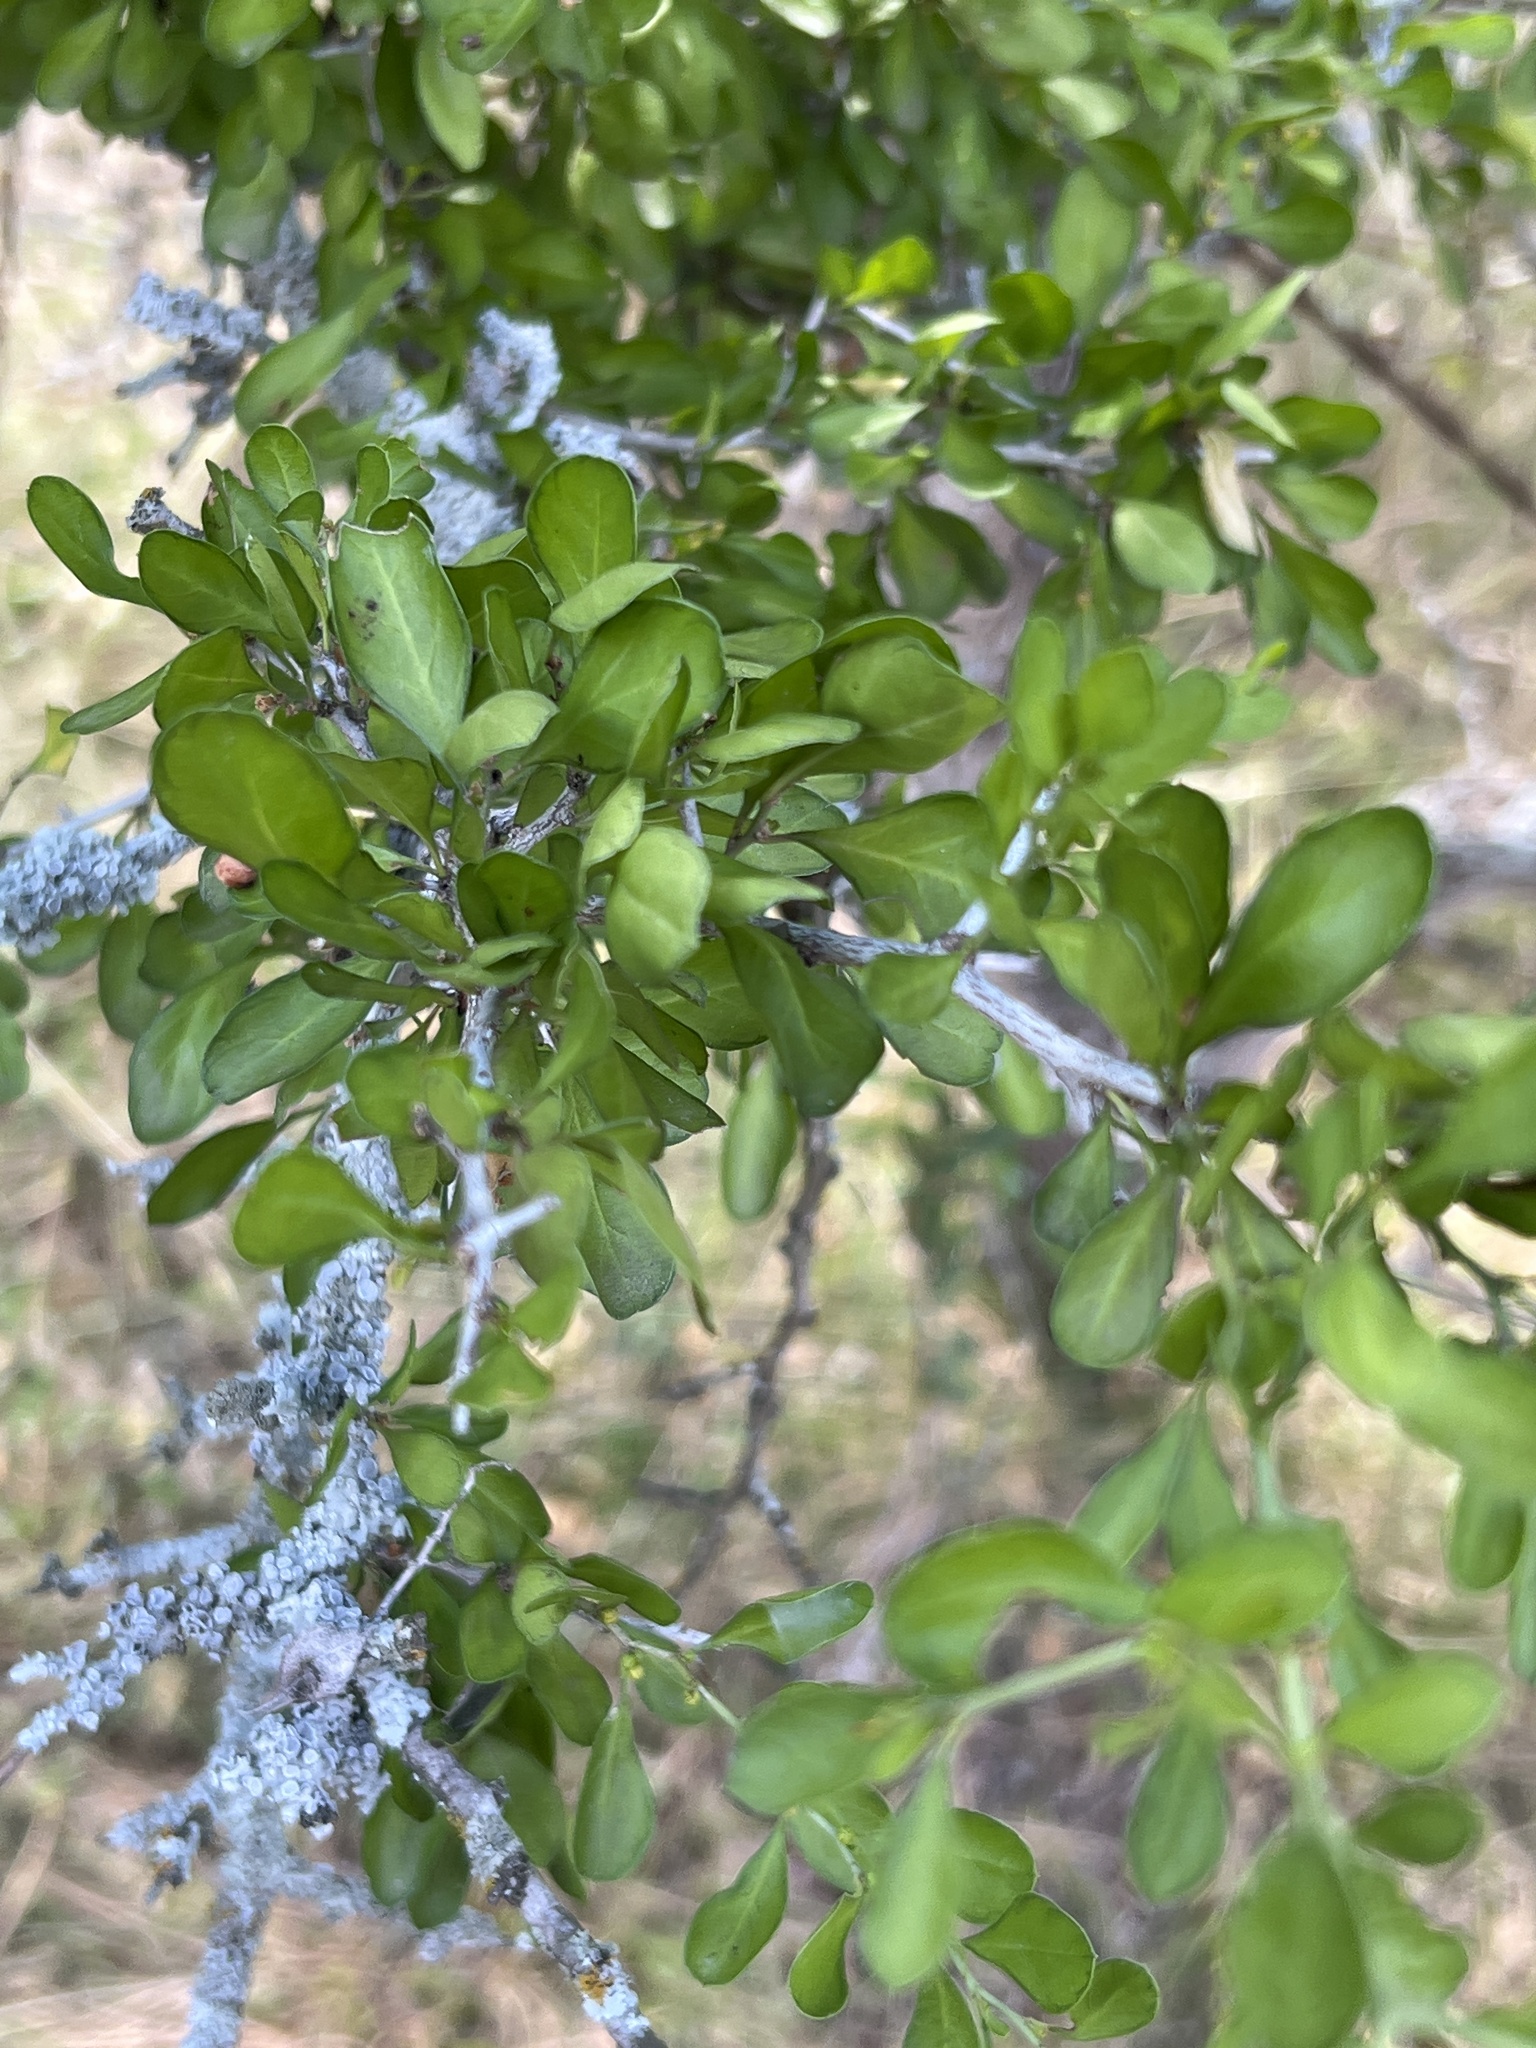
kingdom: Plantae
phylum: Tracheophyta
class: Magnoliopsida
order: Rosales
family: Rhamnaceae
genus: Condalia
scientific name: Condalia hookeri
